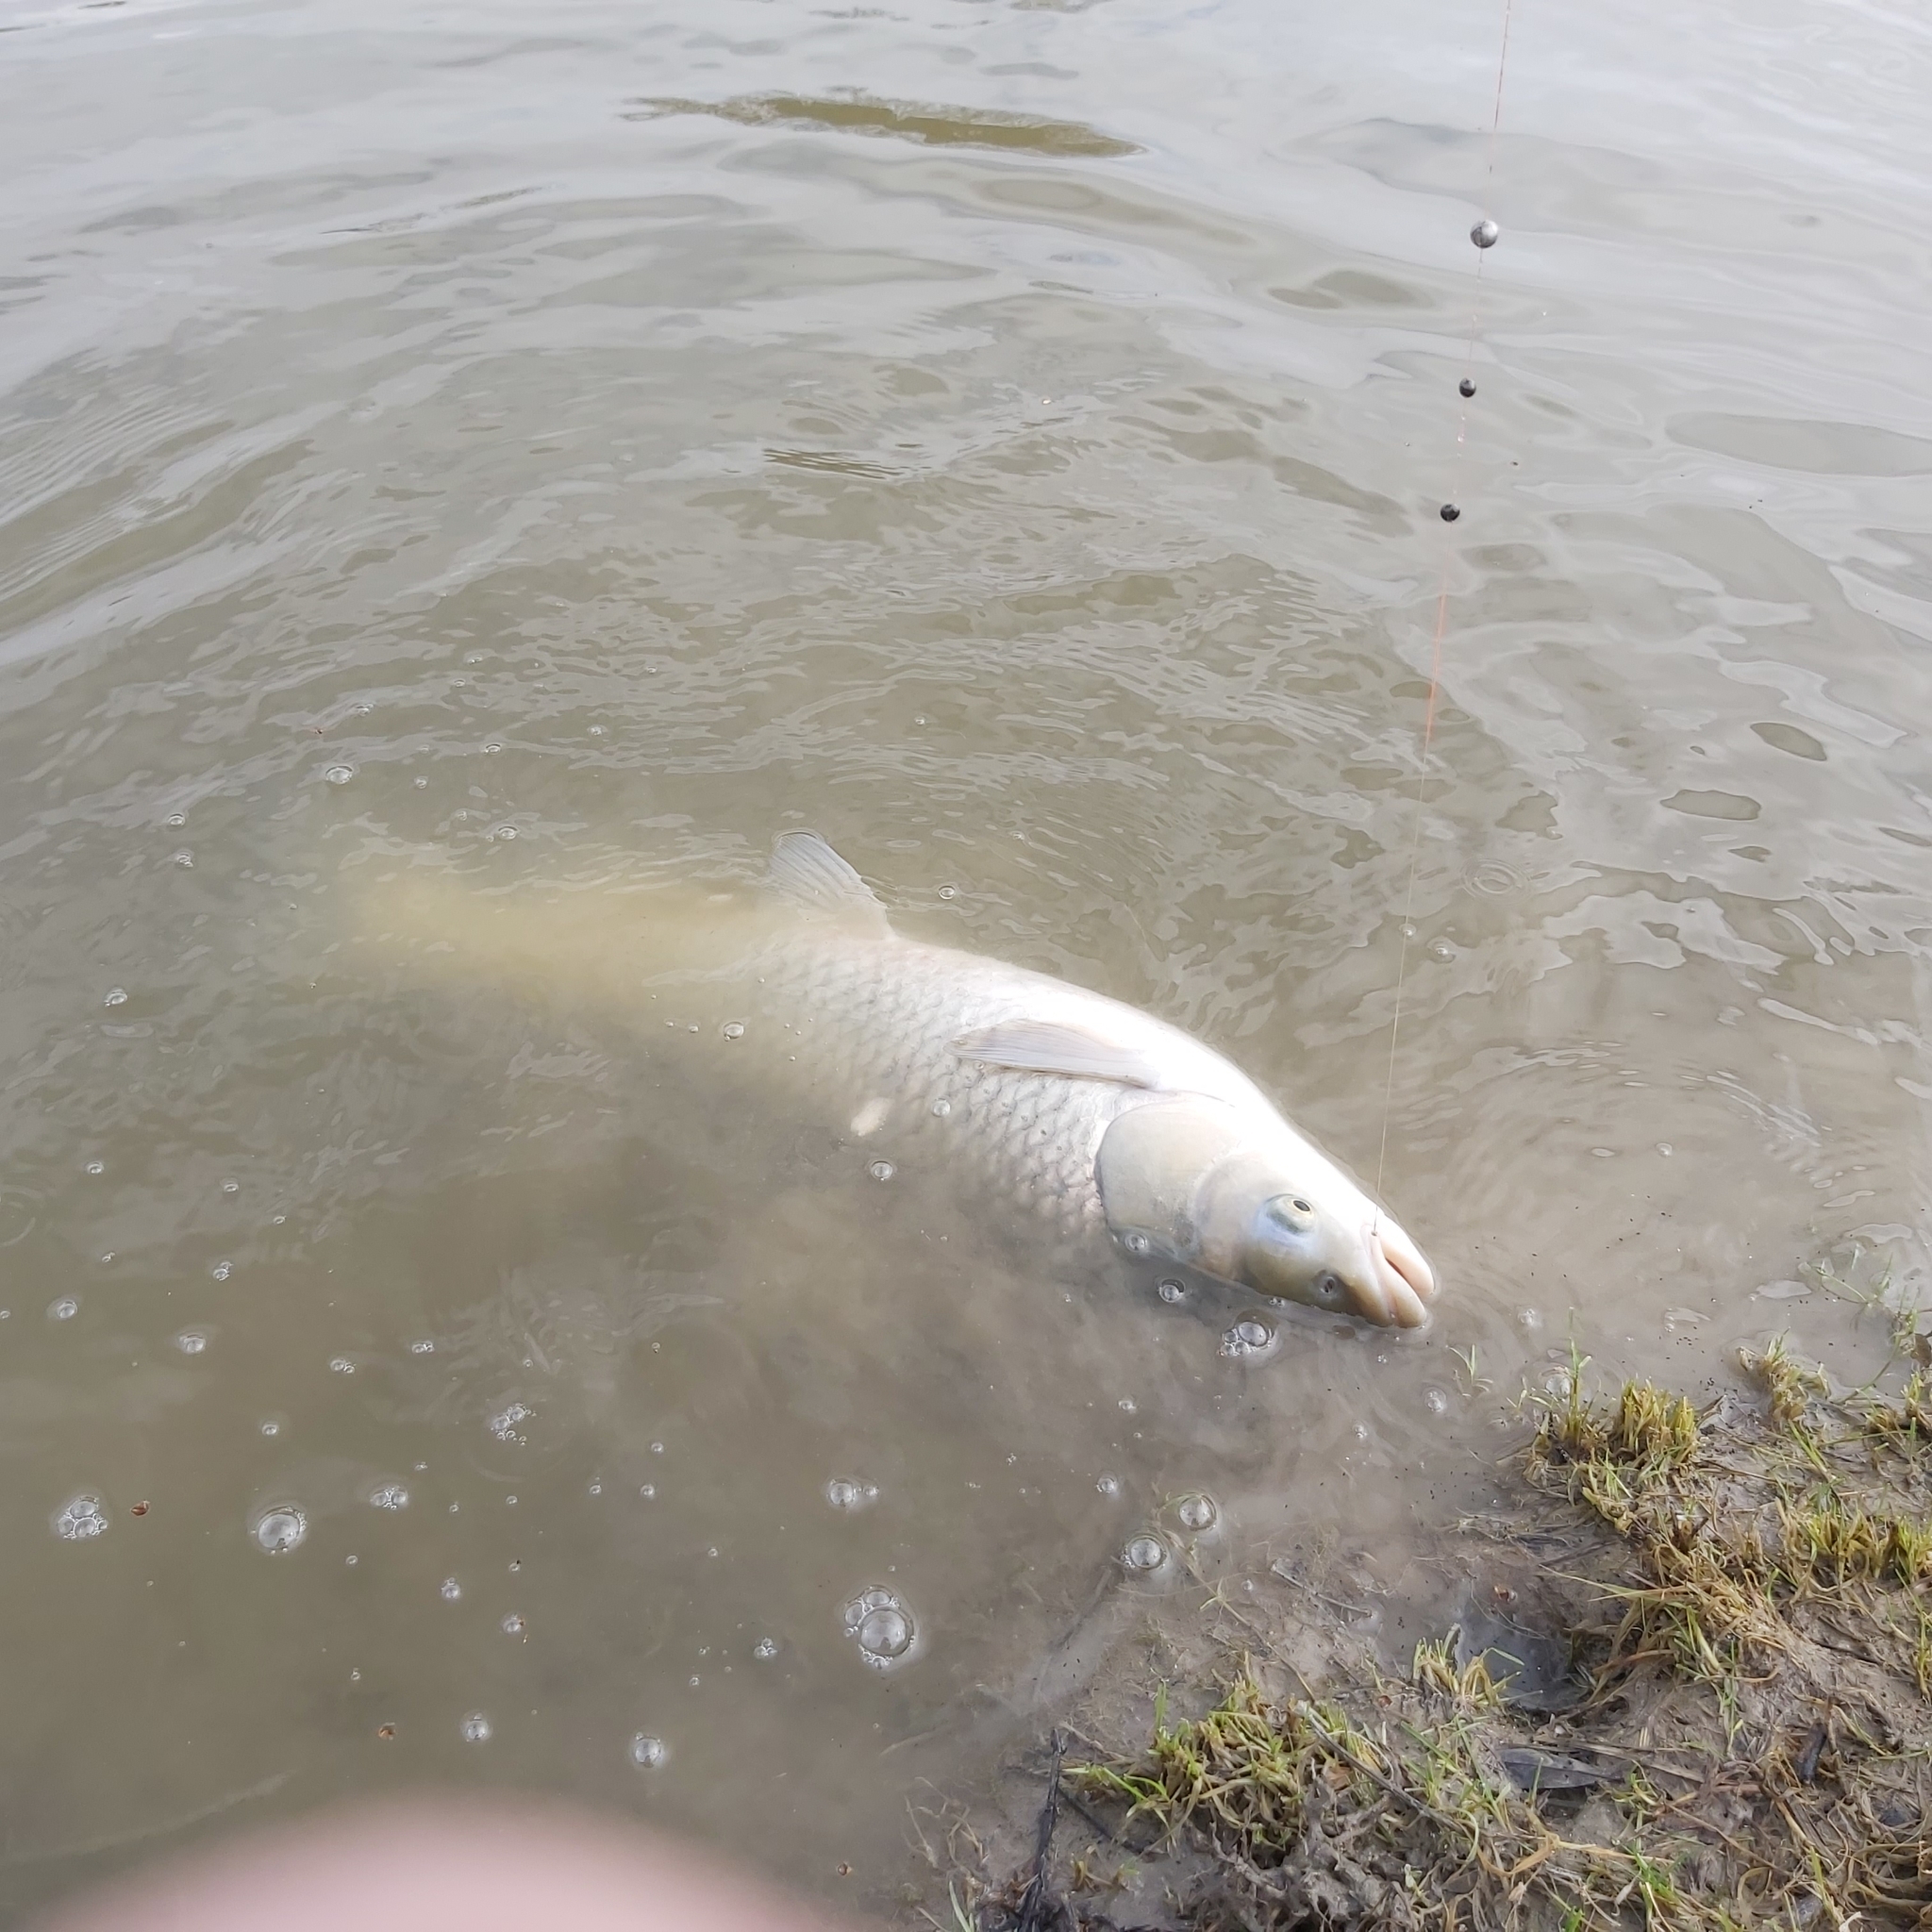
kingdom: Animalia
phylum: Chordata
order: Cypriniformes
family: Cyprinidae
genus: Ctenopharyngodon
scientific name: Ctenopharyngodon idella
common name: Grass carp
